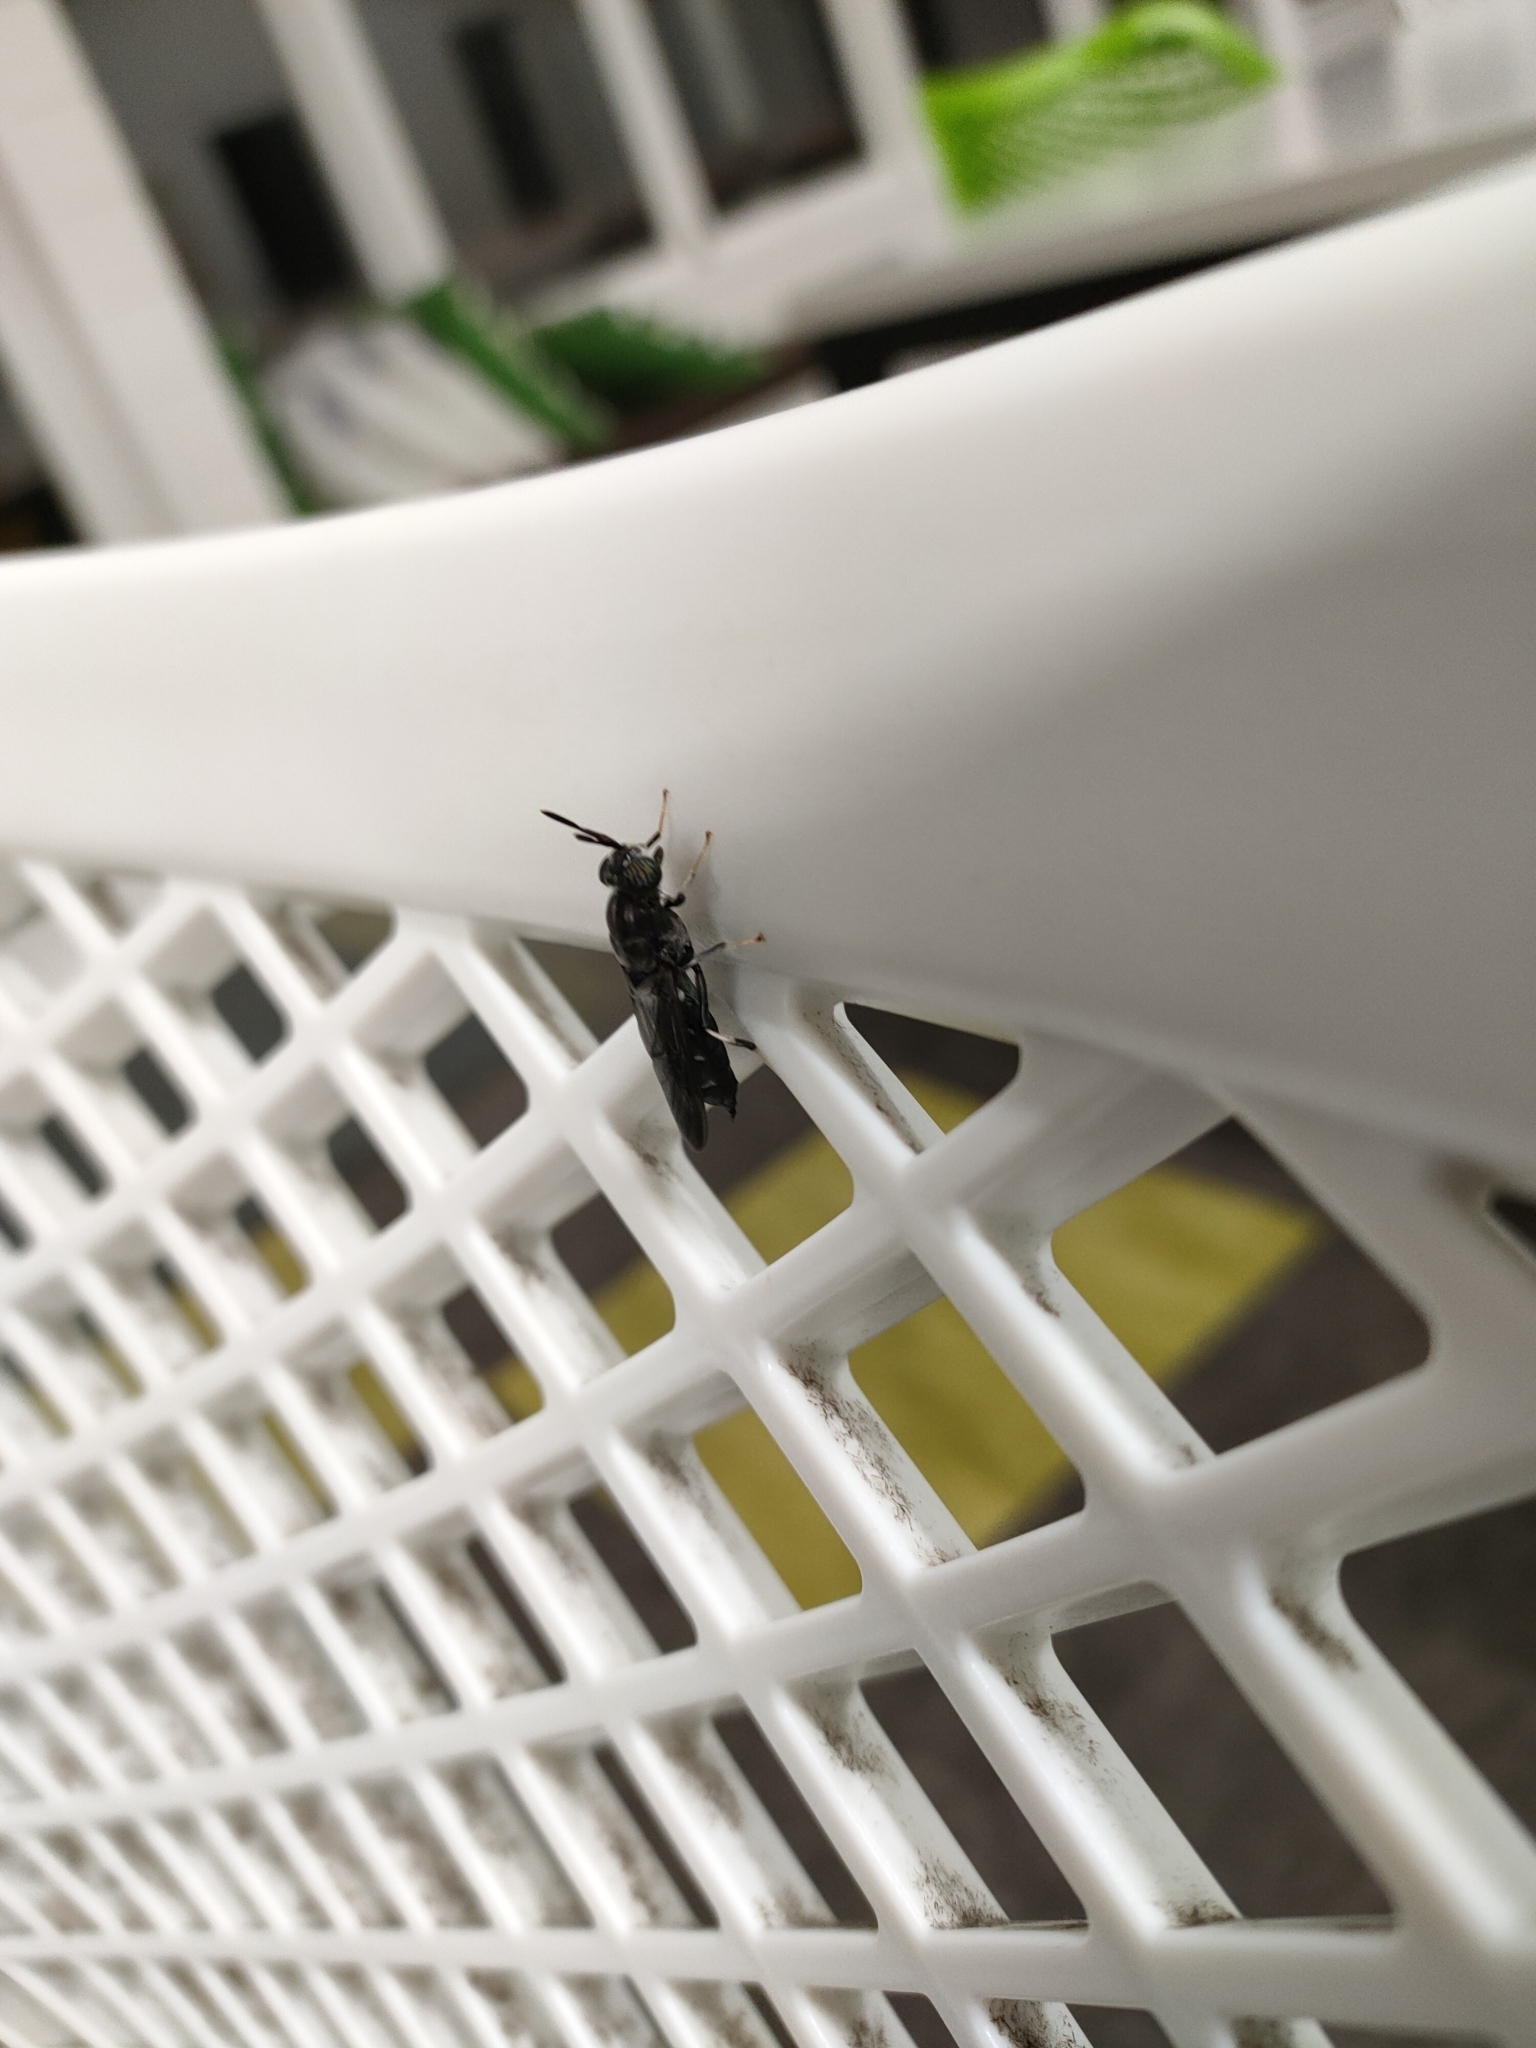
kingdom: Animalia
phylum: Arthropoda
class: Insecta
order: Diptera
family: Stratiomyidae
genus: Hermetia
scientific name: Hermetia illucens
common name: Black soldier fly
